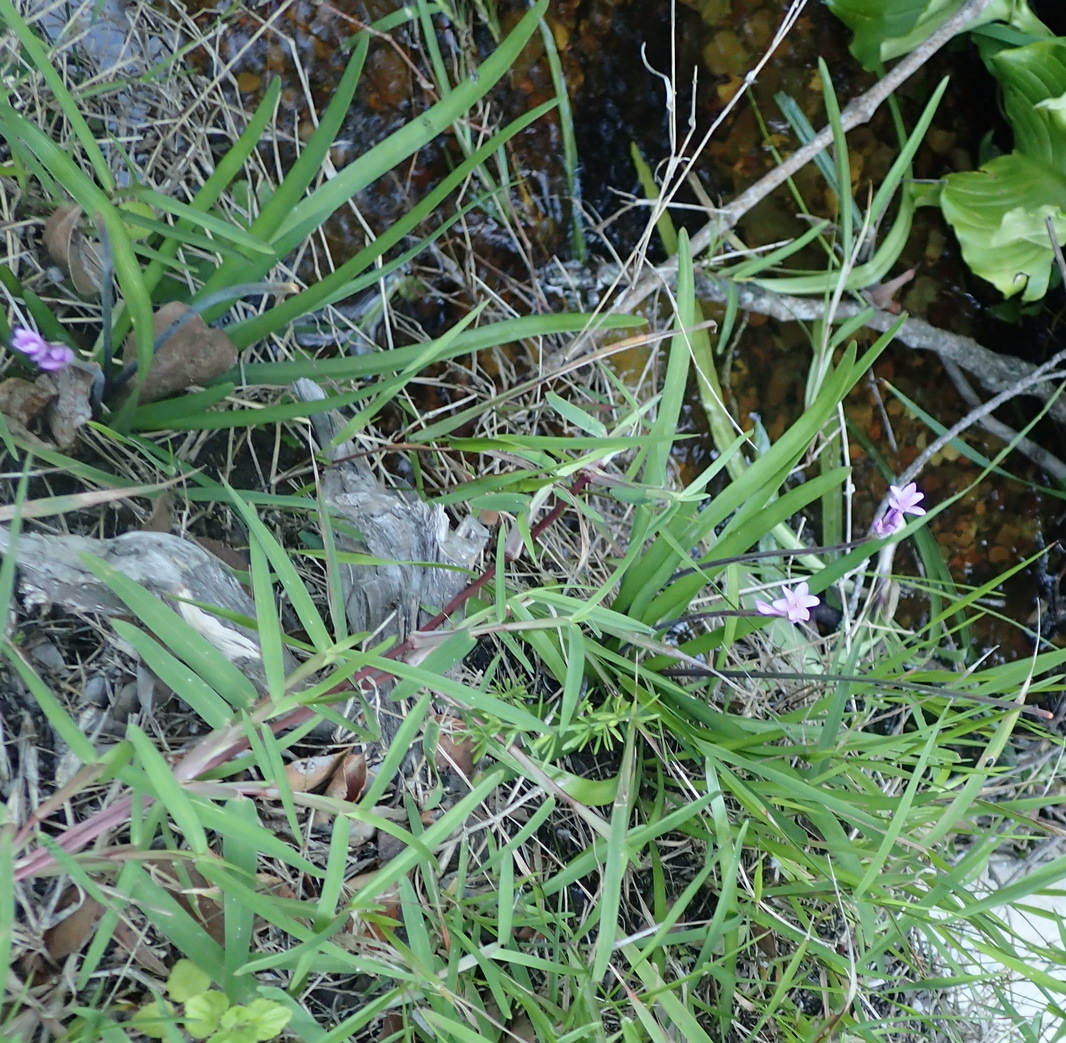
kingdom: Plantae
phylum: Tracheophyta
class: Liliopsida
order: Asparagales
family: Amaryllidaceae
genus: Tulbaghia
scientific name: Tulbaghia maritima
